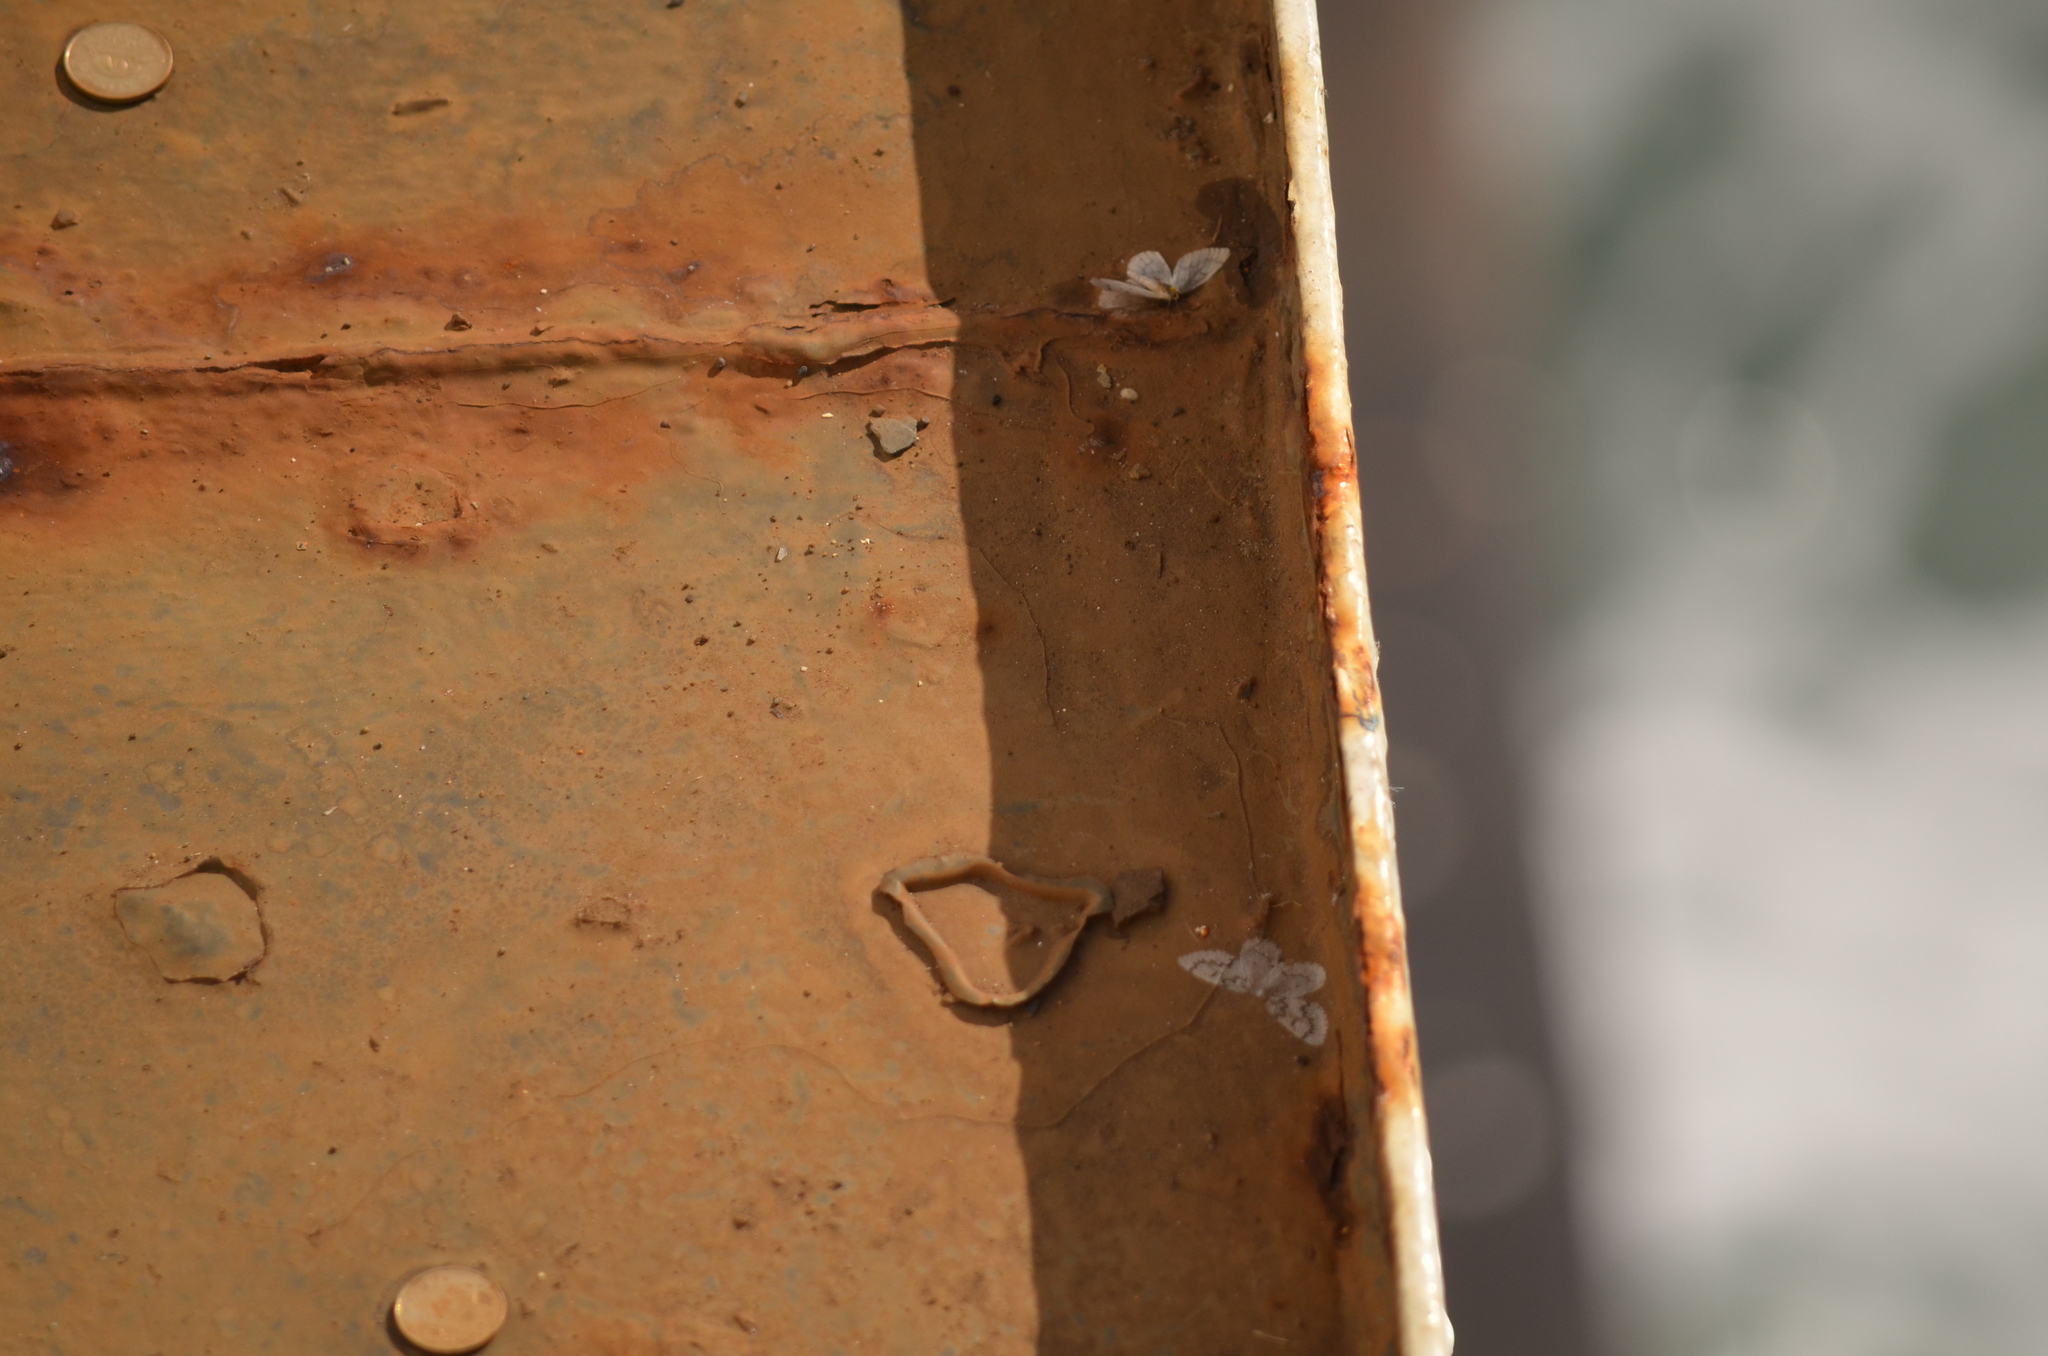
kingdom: Animalia
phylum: Arthropoda
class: Insecta
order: Lepidoptera
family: Geometridae
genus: Nepytia
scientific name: Nepytia phantasmaria
